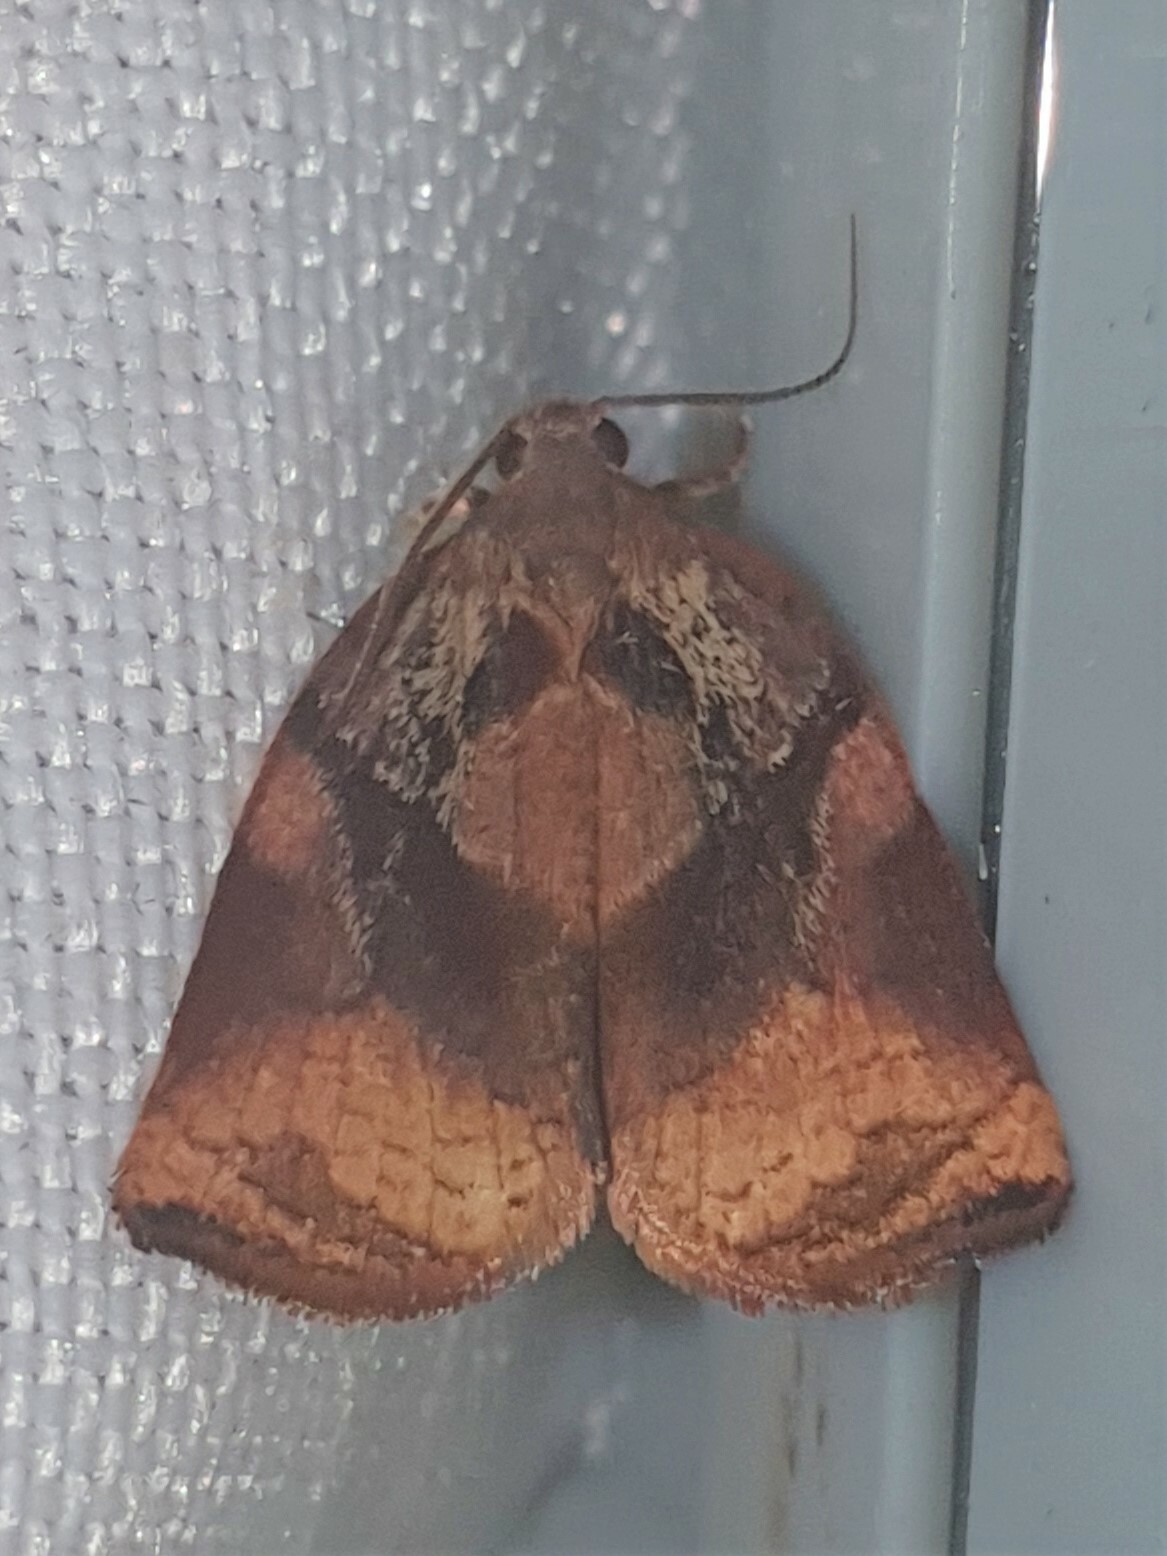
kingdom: Animalia
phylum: Arthropoda
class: Insecta
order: Lepidoptera
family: Tortricidae
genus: Archips
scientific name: Archips podana
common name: Large fruit-tree tortrix
